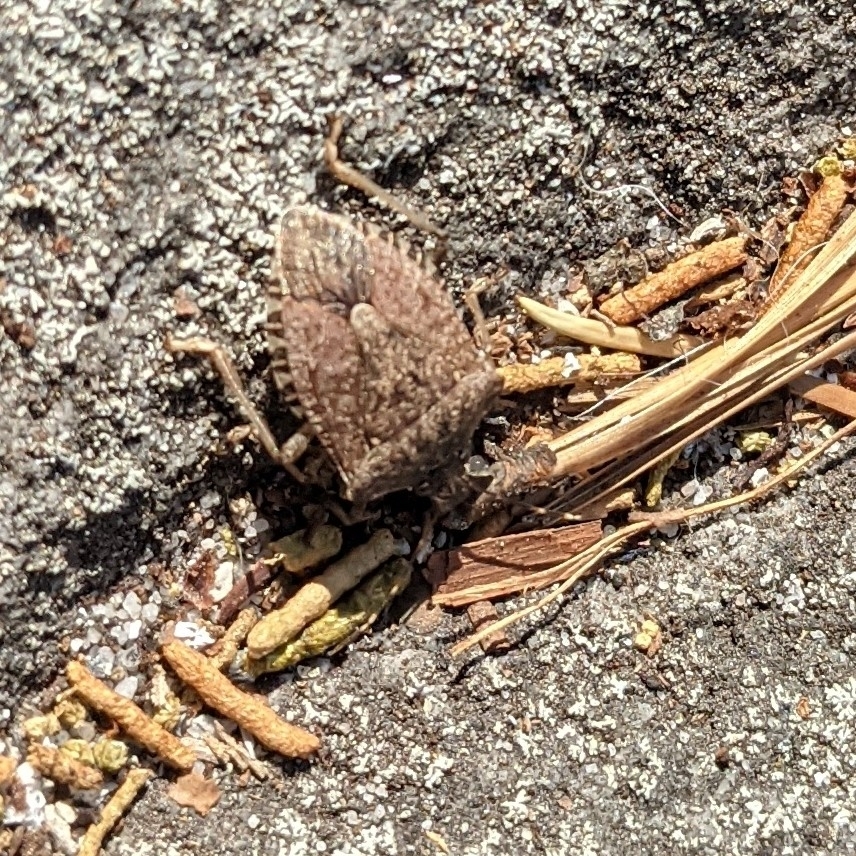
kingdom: Animalia
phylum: Arthropoda
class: Insecta
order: Hemiptera
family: Pentatomidae
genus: Halyomorpha
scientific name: Halyomorpha halys
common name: Brown marmorated stink bug
